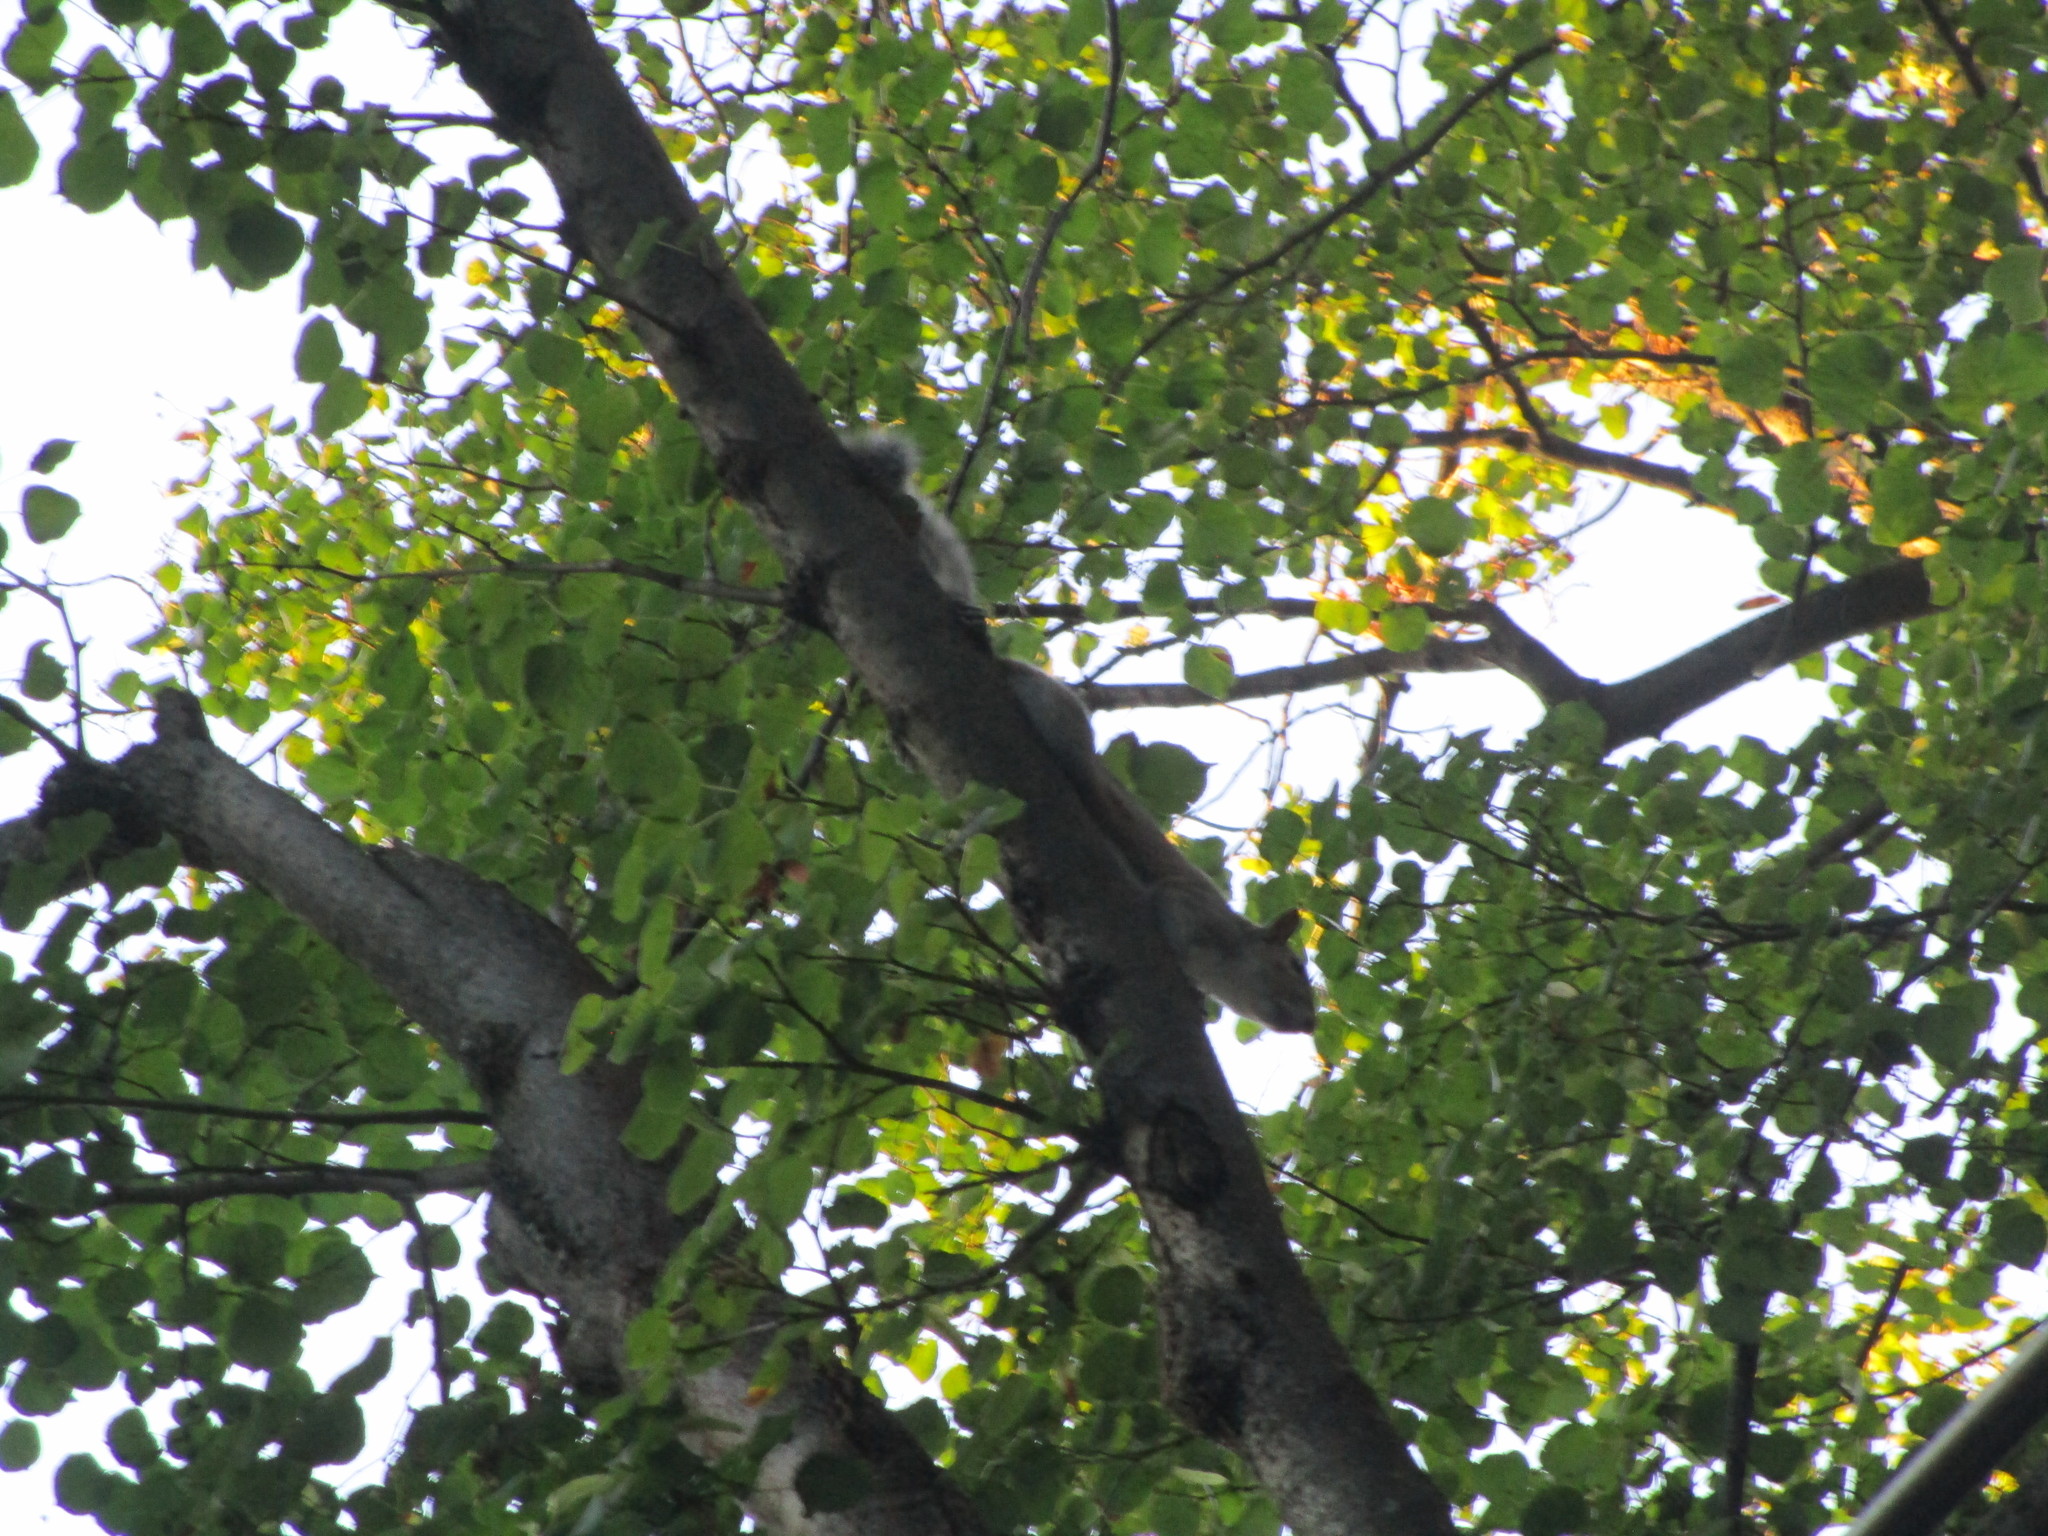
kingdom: Animalia
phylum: Chordata
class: Mammalia
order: Rodentia
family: Sciuridae
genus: Sciurus
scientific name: Sciurus carolinensis
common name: Eastern gray squirrel
